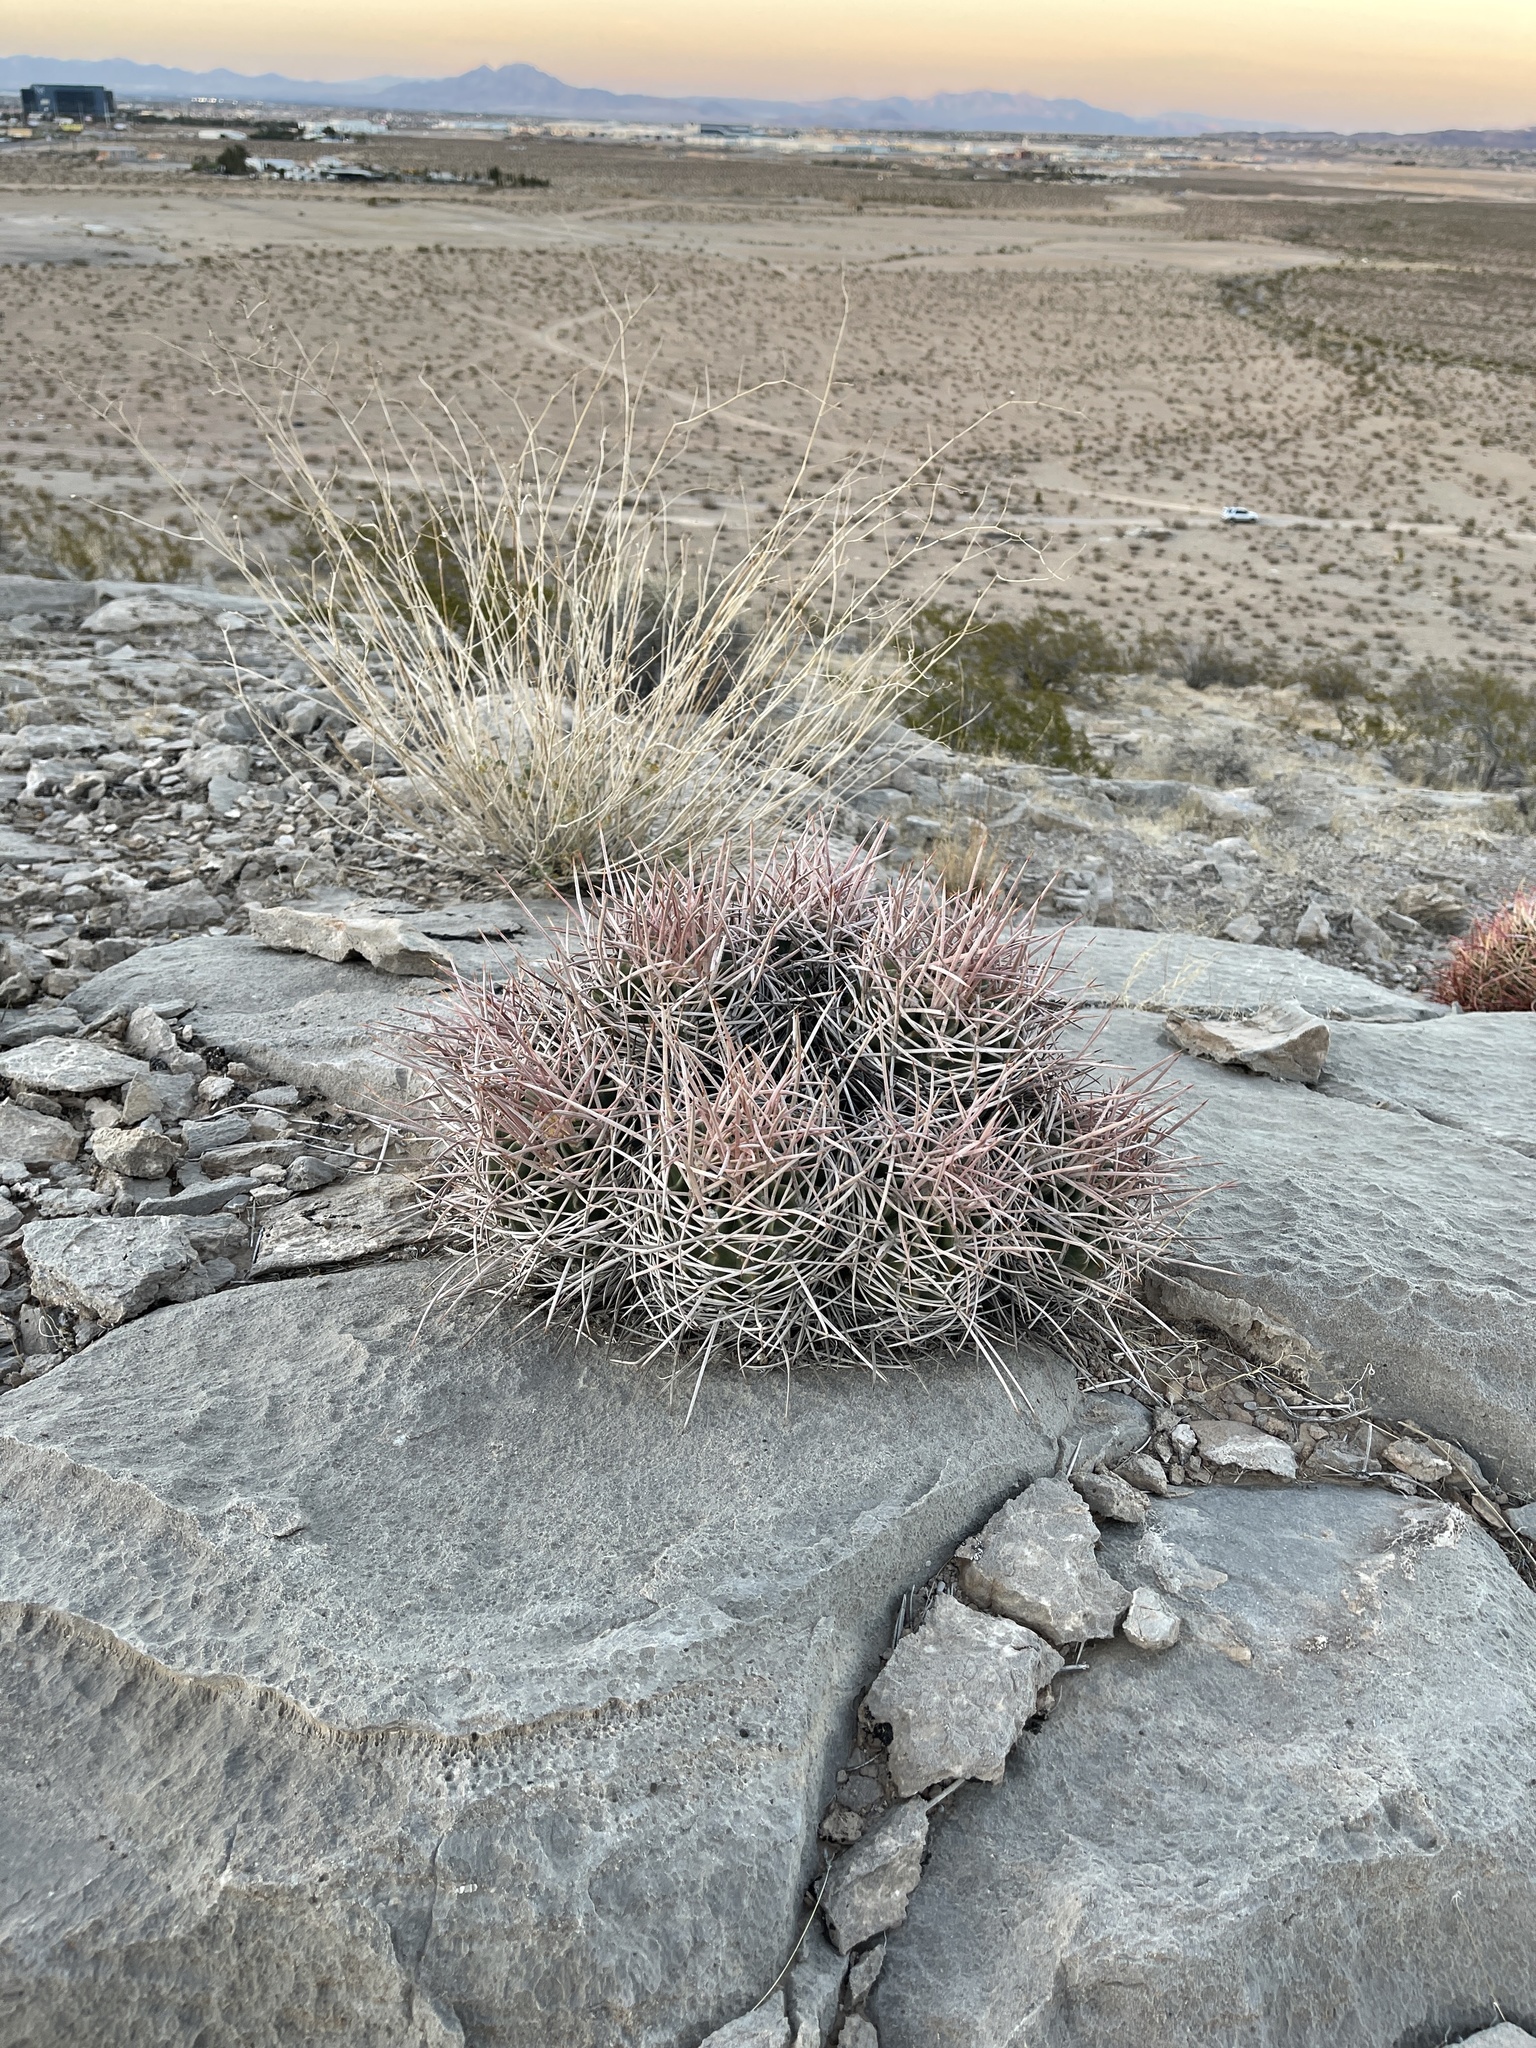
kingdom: Plantae
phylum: Tracheophyta
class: Magnoliopsida
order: Caryophyllales
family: Cactaceae
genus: Echinocactus
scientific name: Echinocactus polycephalus
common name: Cottontop cactus
